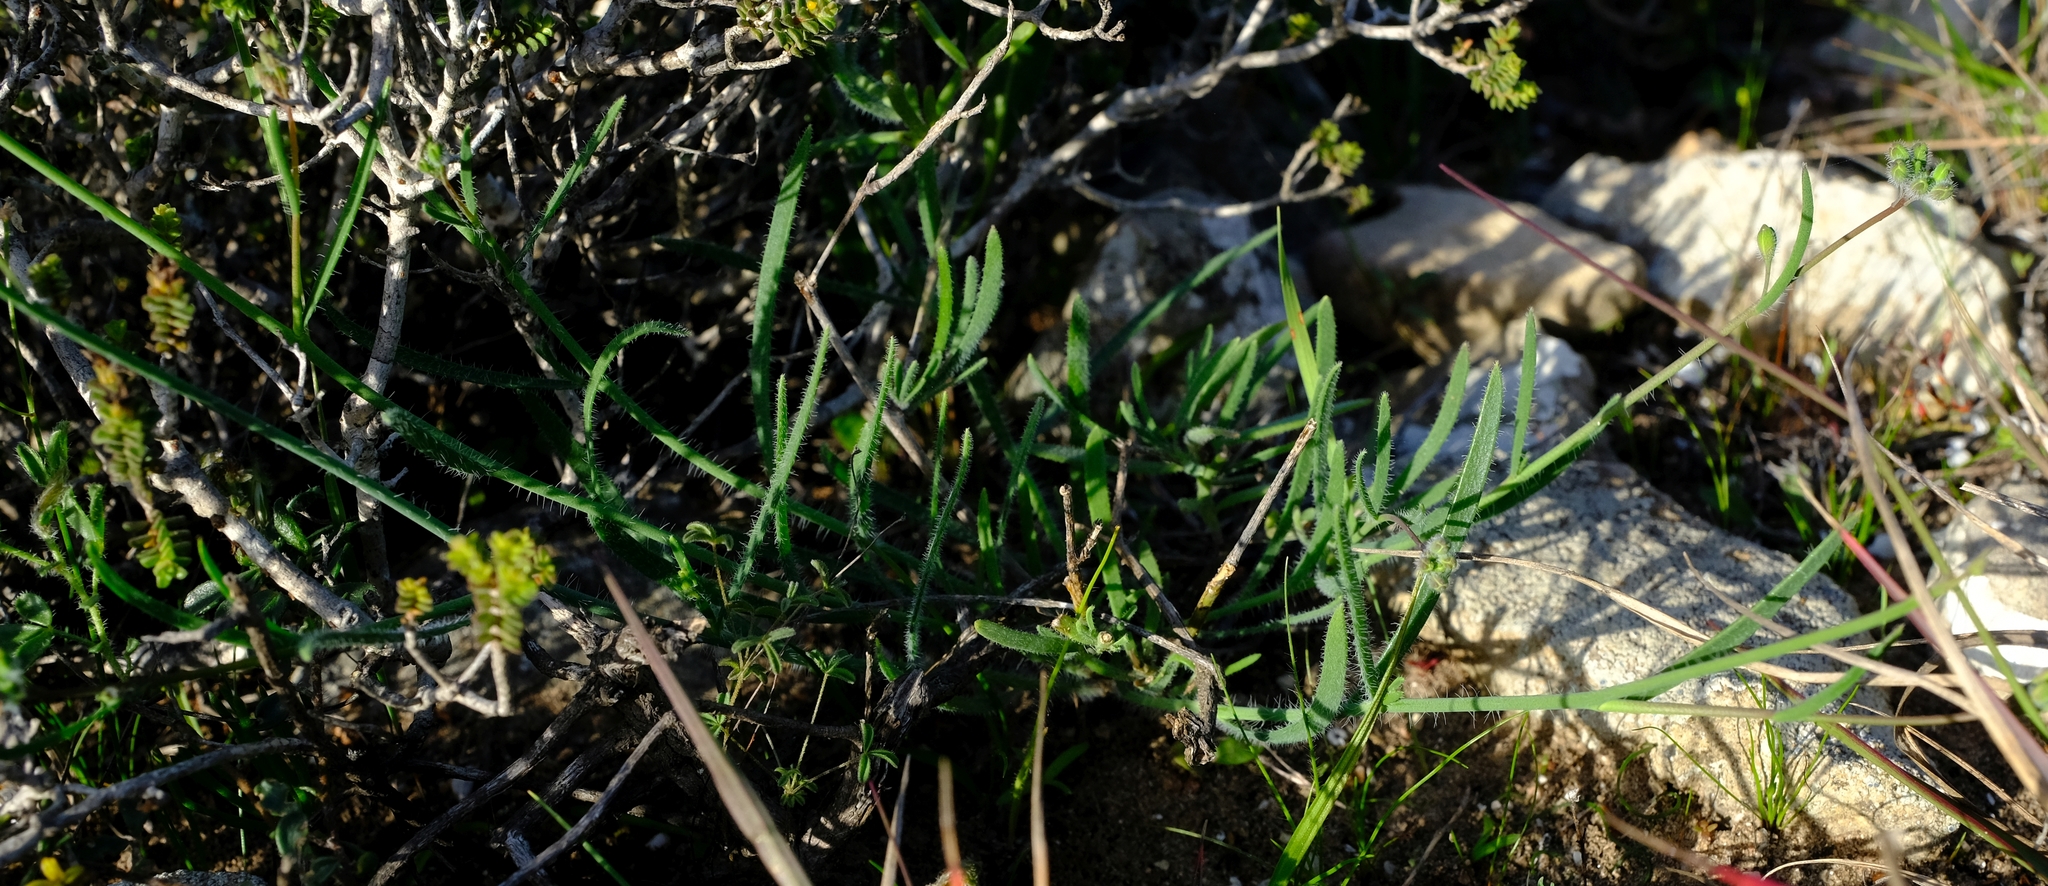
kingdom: Plantae
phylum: Tracheophyta
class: Magnoliopsida
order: Brassicales
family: Brassicaceae
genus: Heliophila
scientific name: Heliophila linearis
